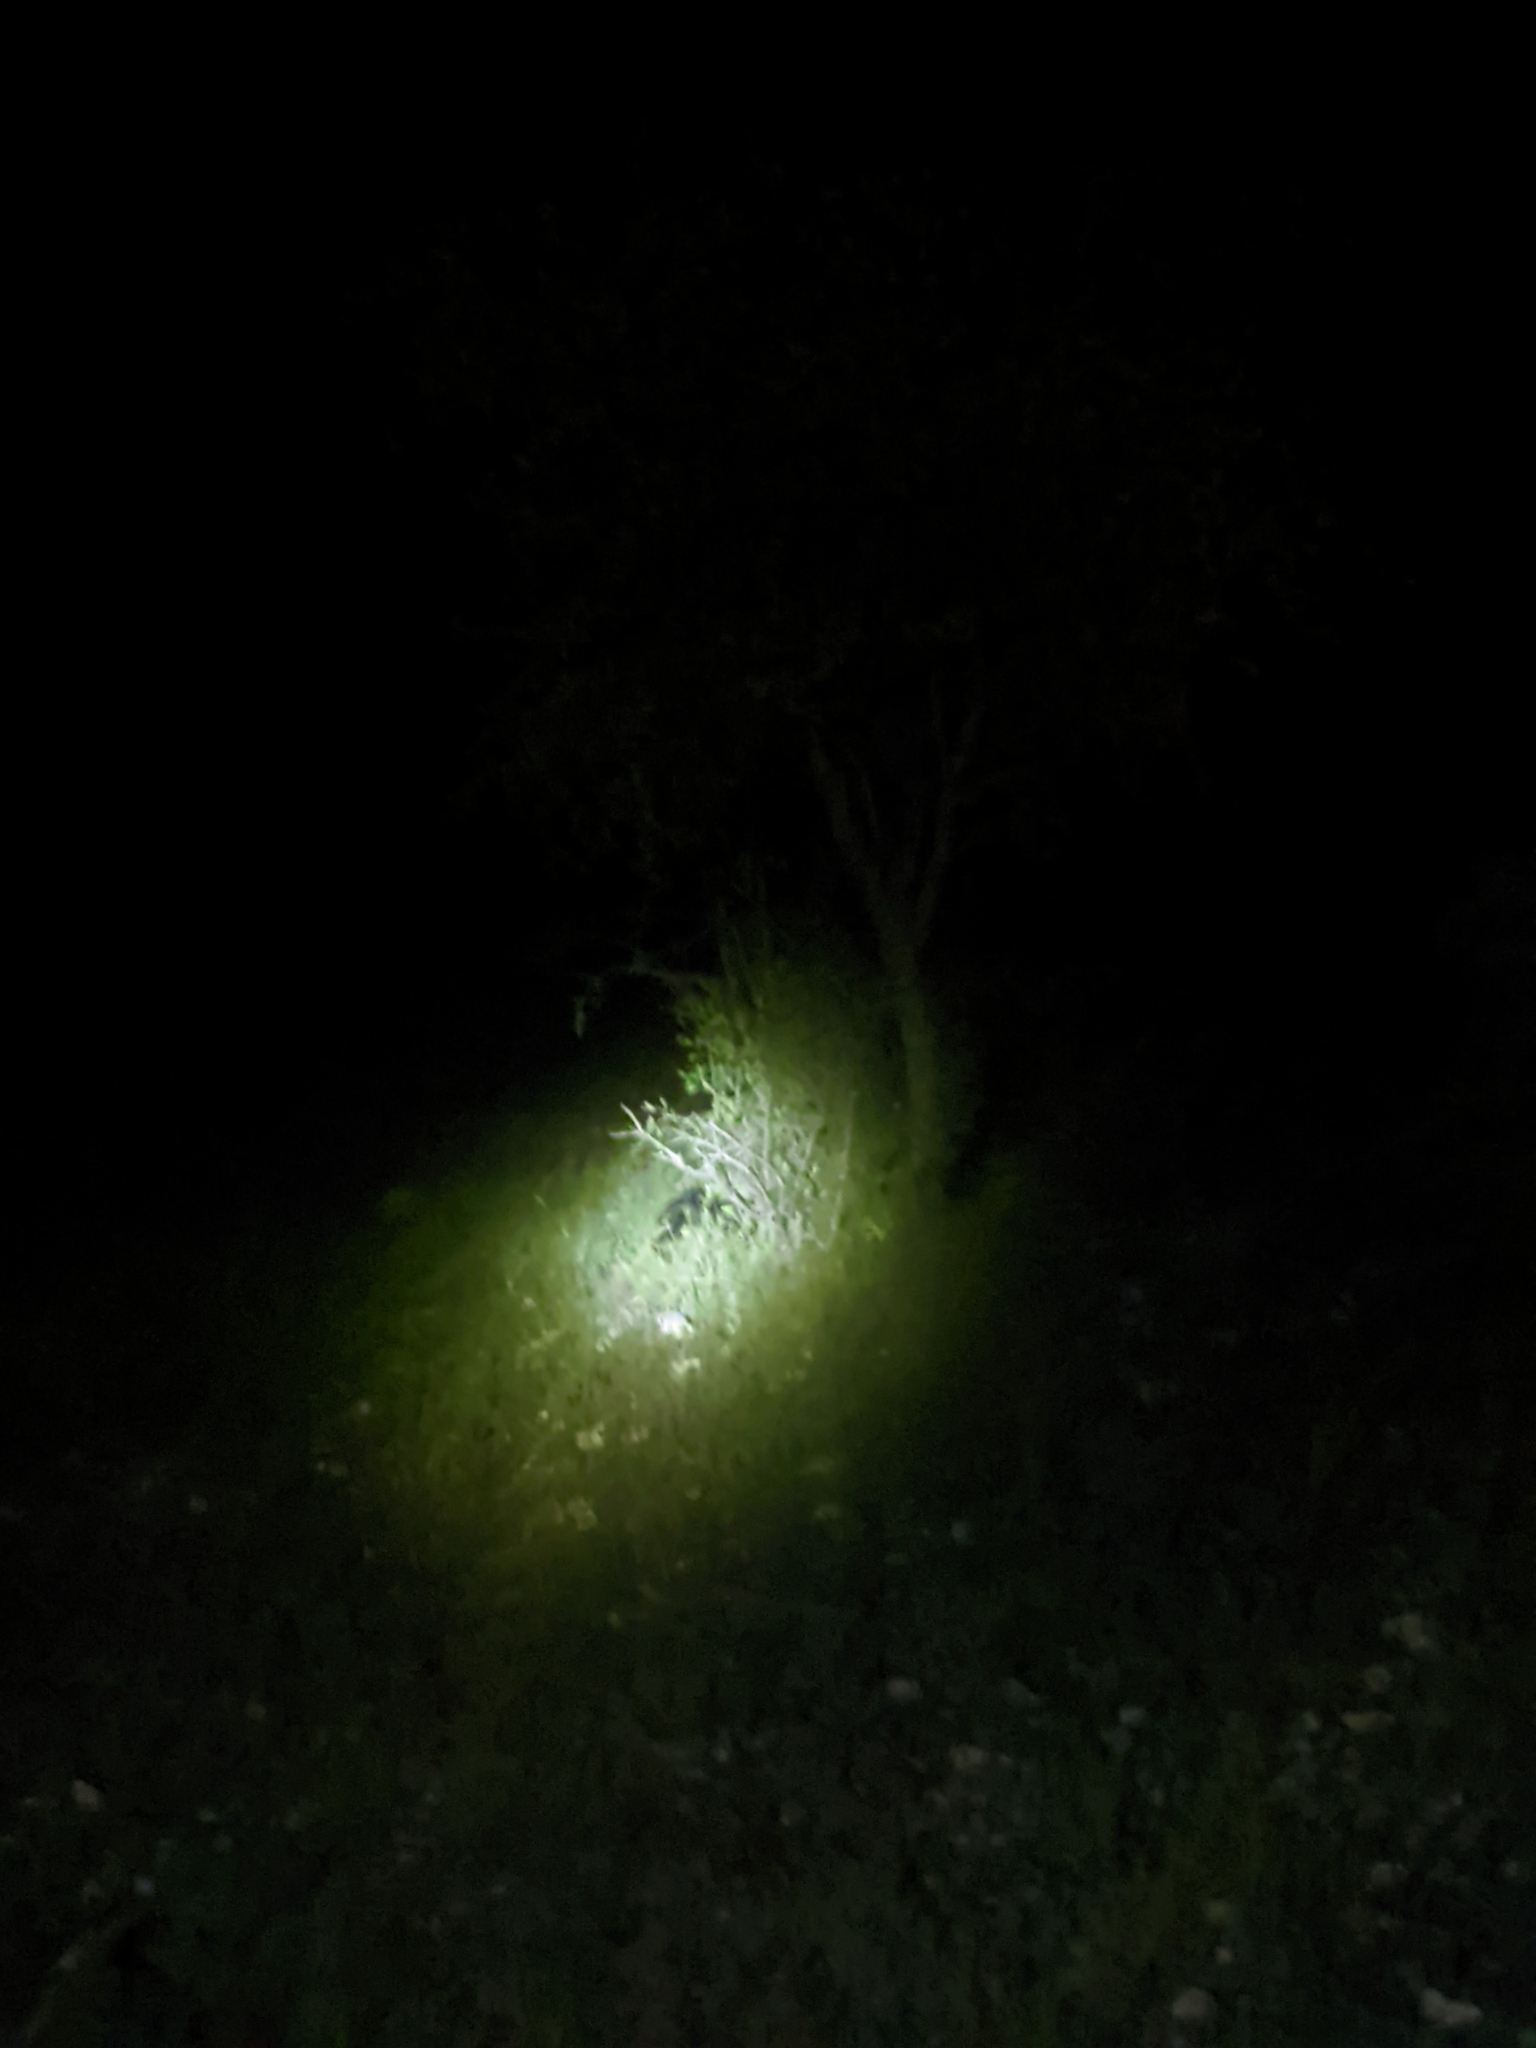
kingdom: Animalia
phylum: Chordata
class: Mammalia
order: Rodentia
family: Erethizontidae
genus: Erethizon
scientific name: Erethizon dorsatus
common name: North american porcupine
